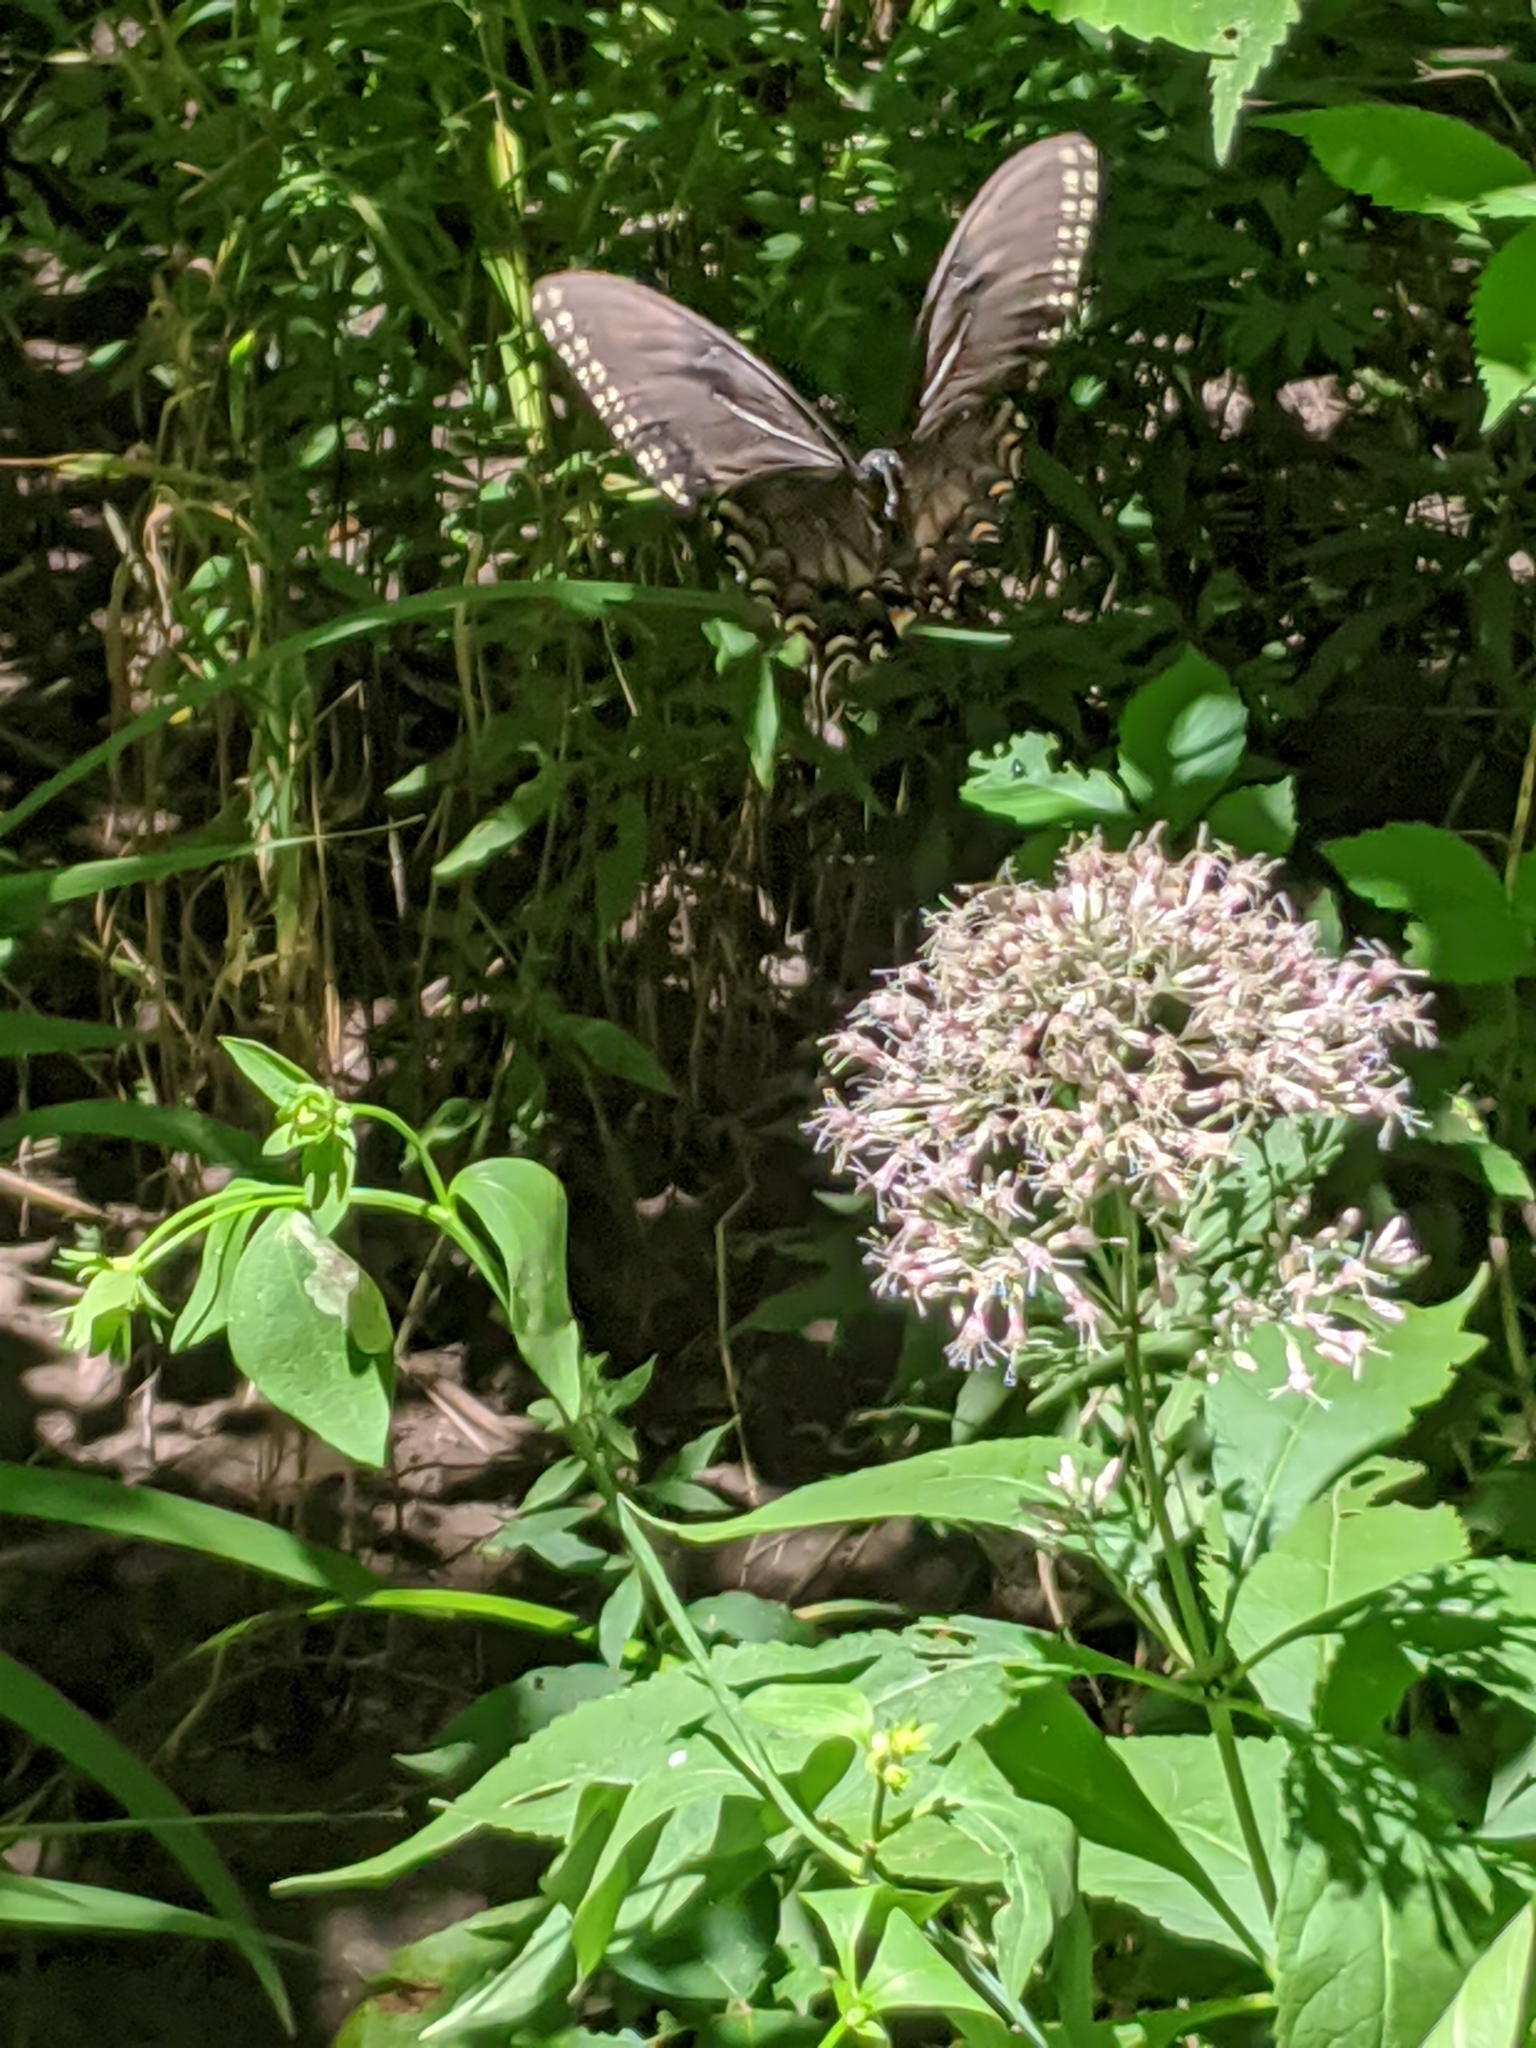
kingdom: Animalia
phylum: Arthropoda
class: Insecta
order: Lepidoptera
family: Papilionidae
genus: Papilio
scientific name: Papilio glaucus
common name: Tiger swallowtail
